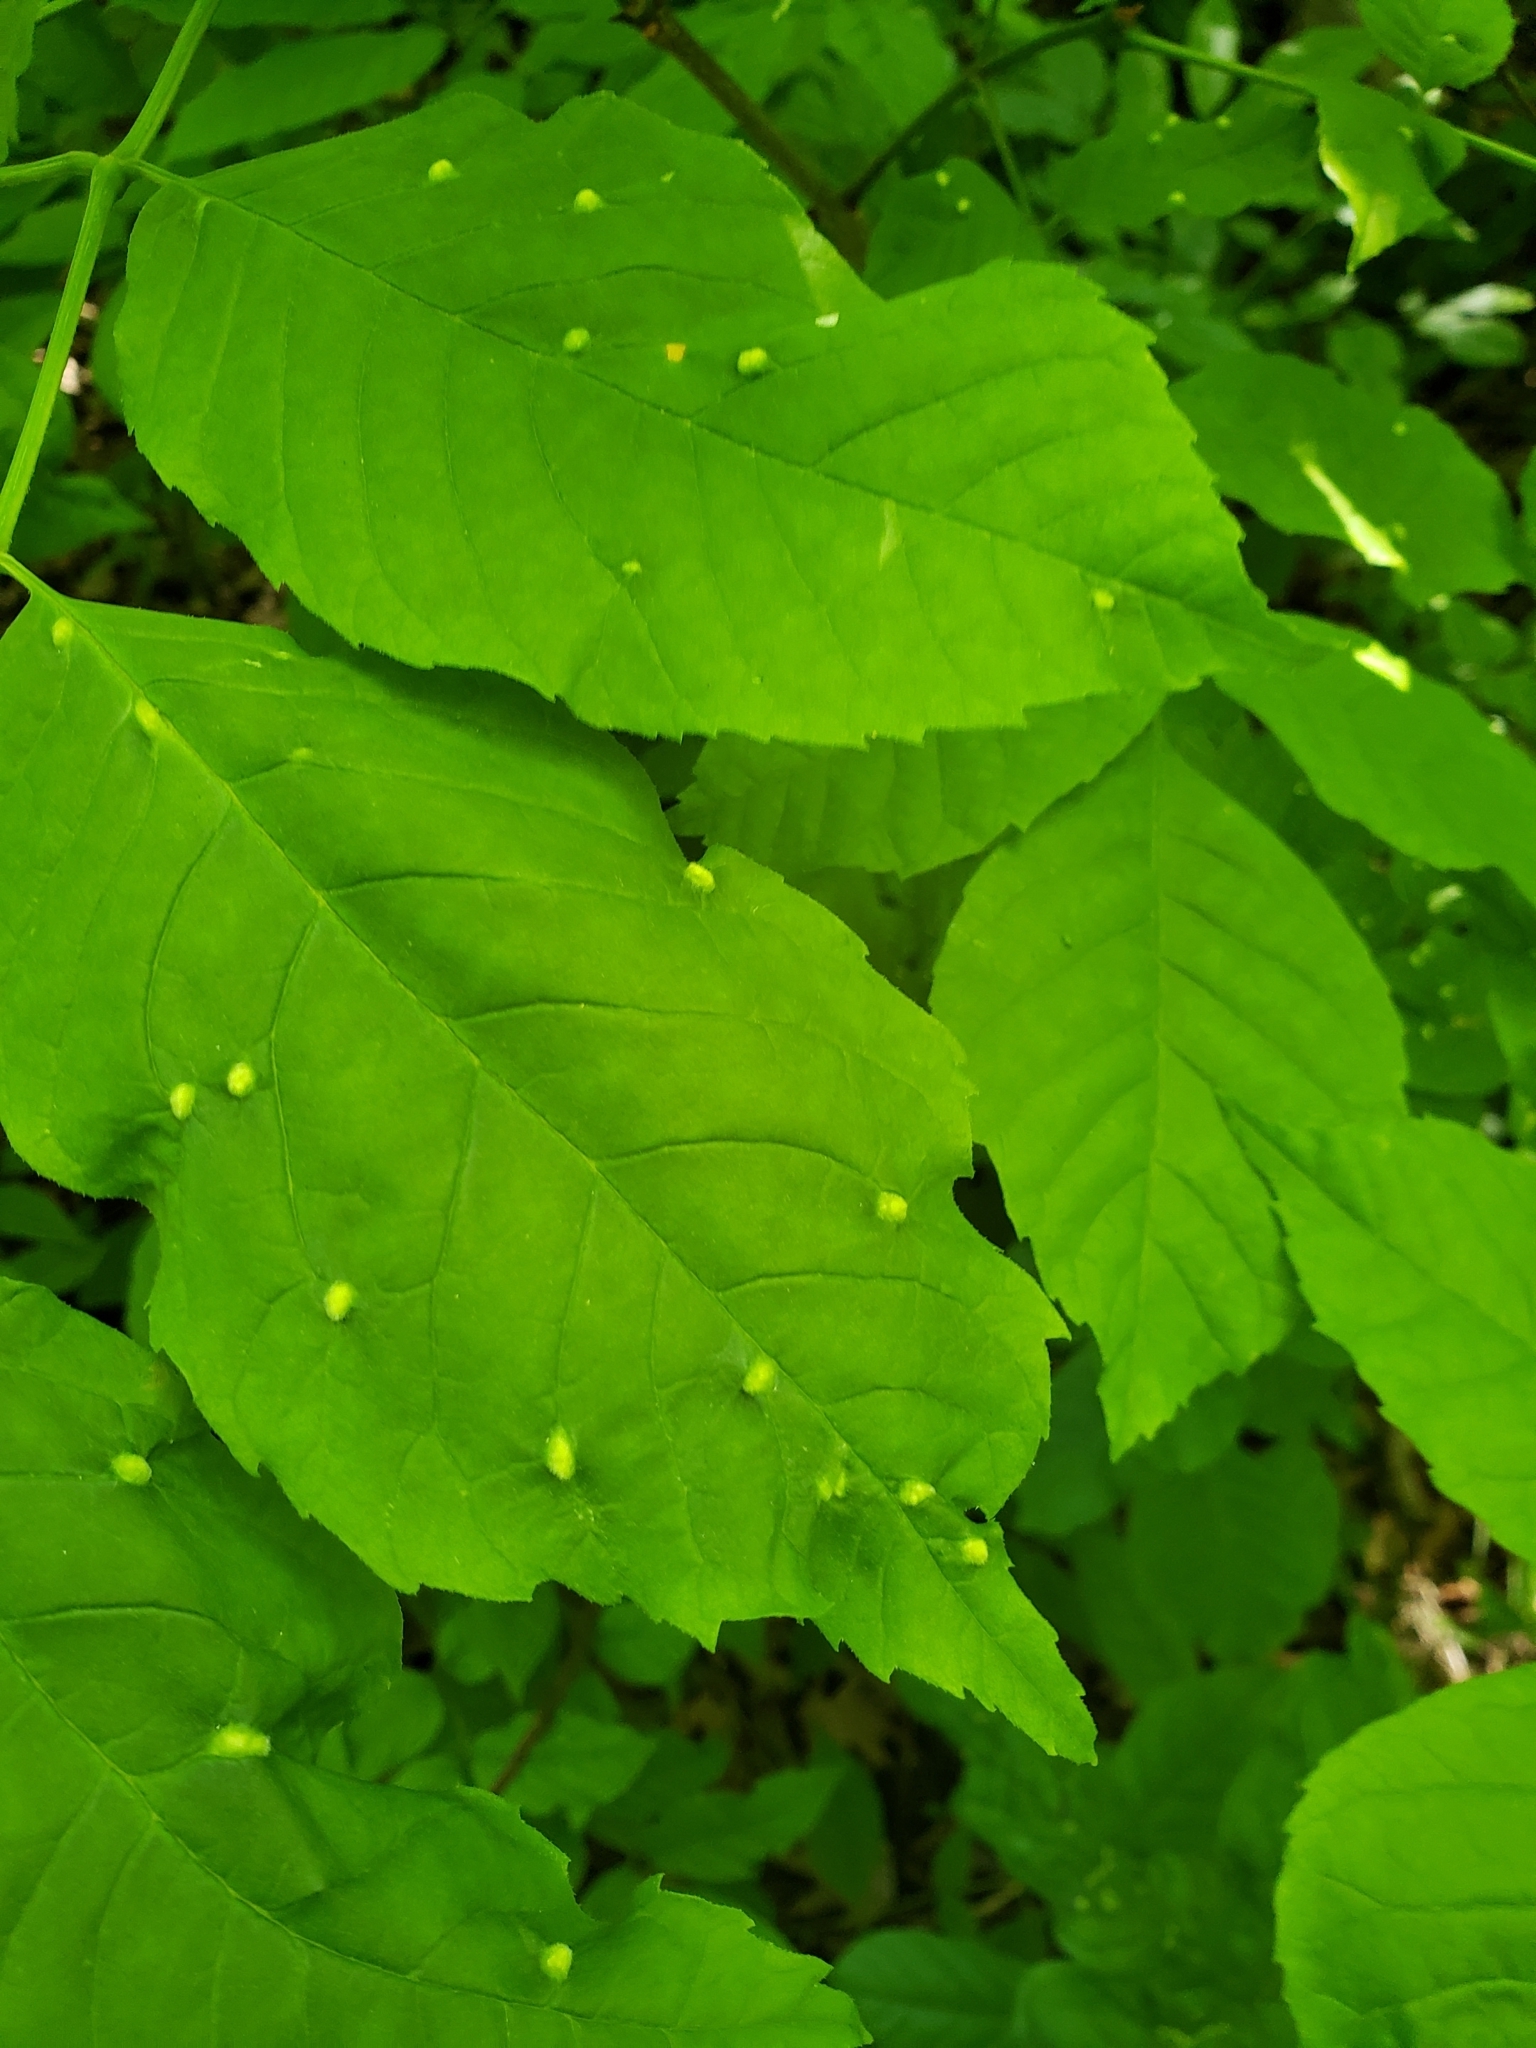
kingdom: Animalia
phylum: Arthropoda
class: Arachnida
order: Trombidiformes
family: Eriophyidae
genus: Aceria
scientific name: Aceria fraxinicola
